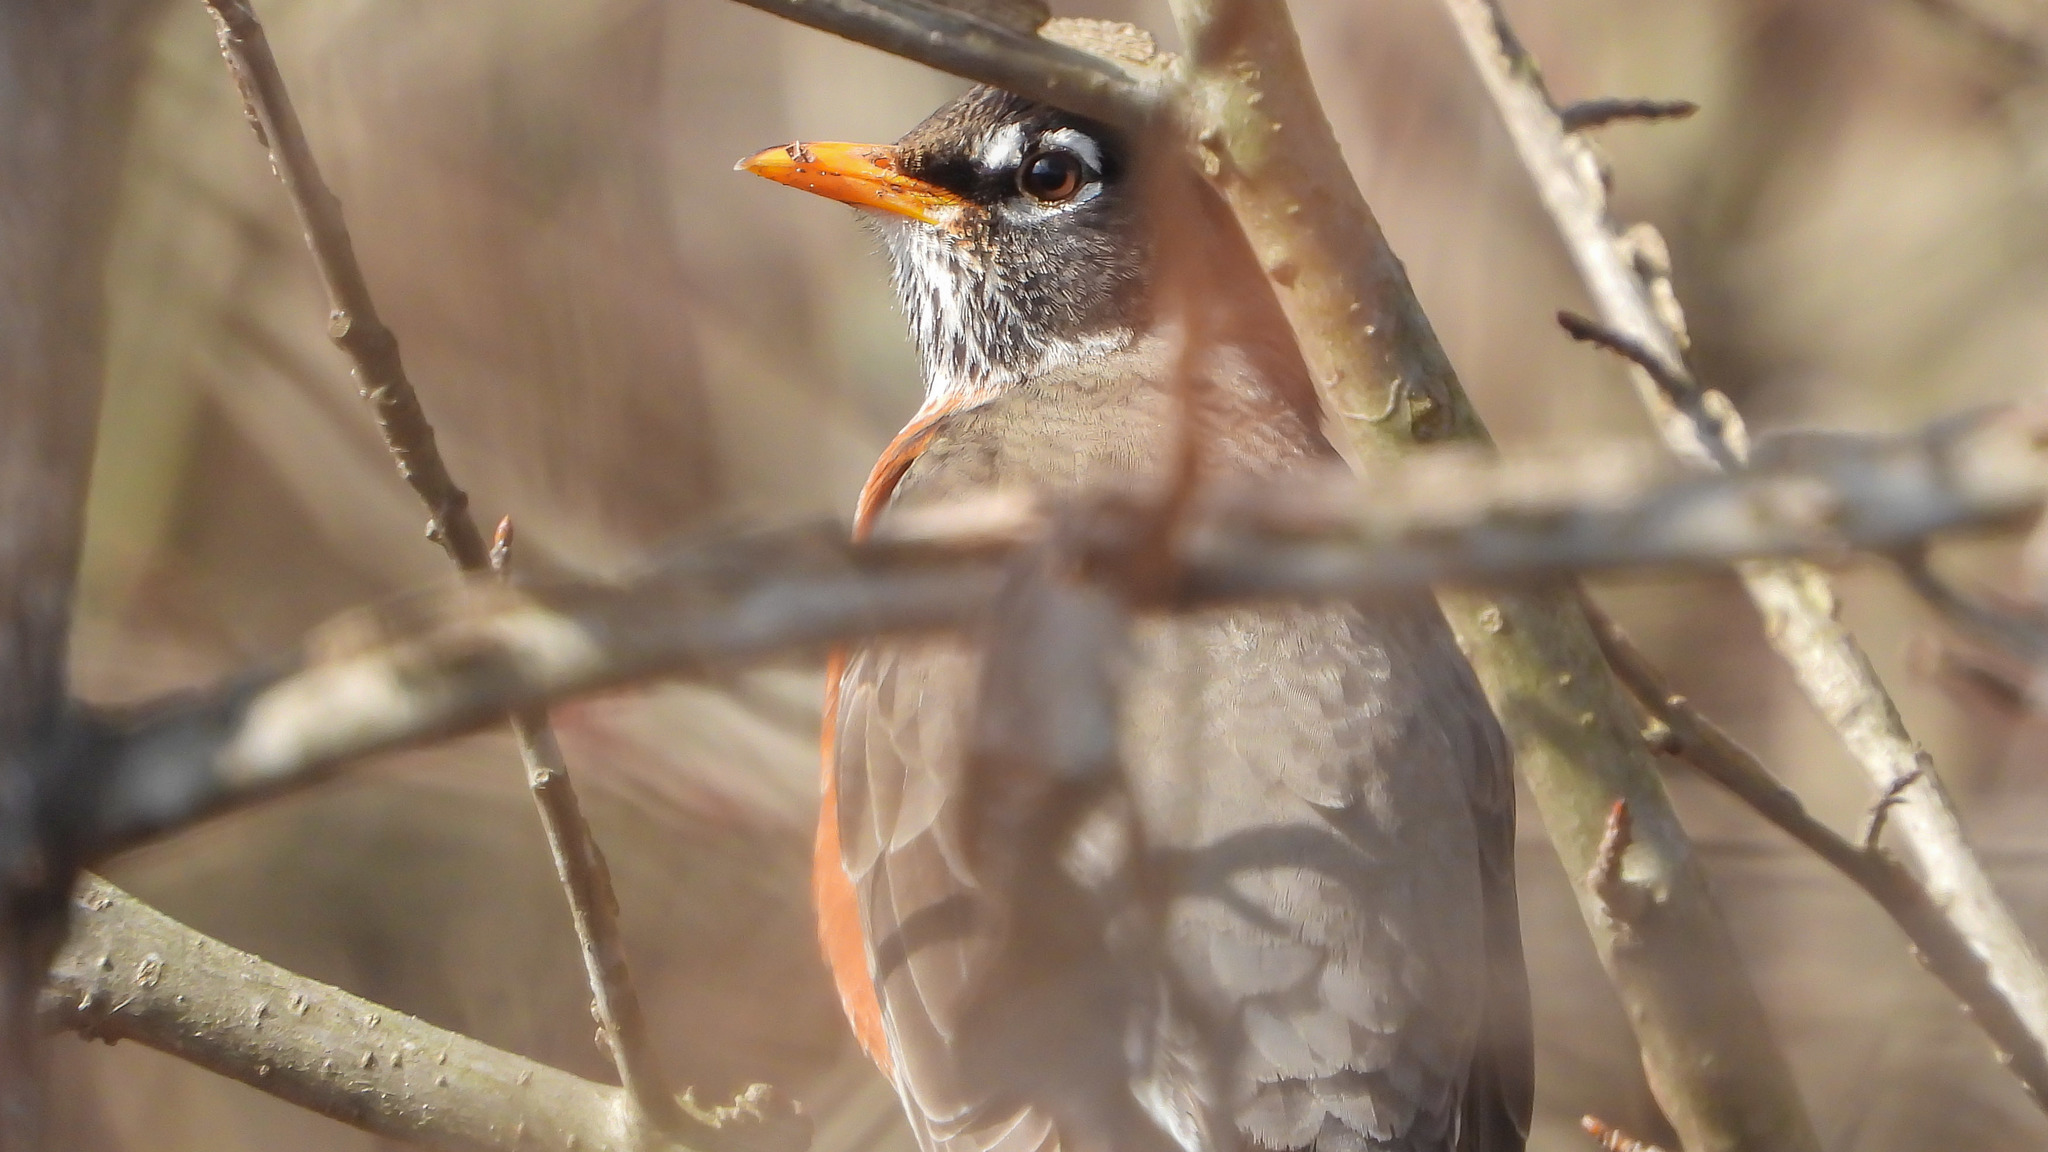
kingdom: Animalia
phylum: Chordata
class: Aves
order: Passeriformes
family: Turdidae
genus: Turdus
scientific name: Turdus migratorius
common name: American robin
